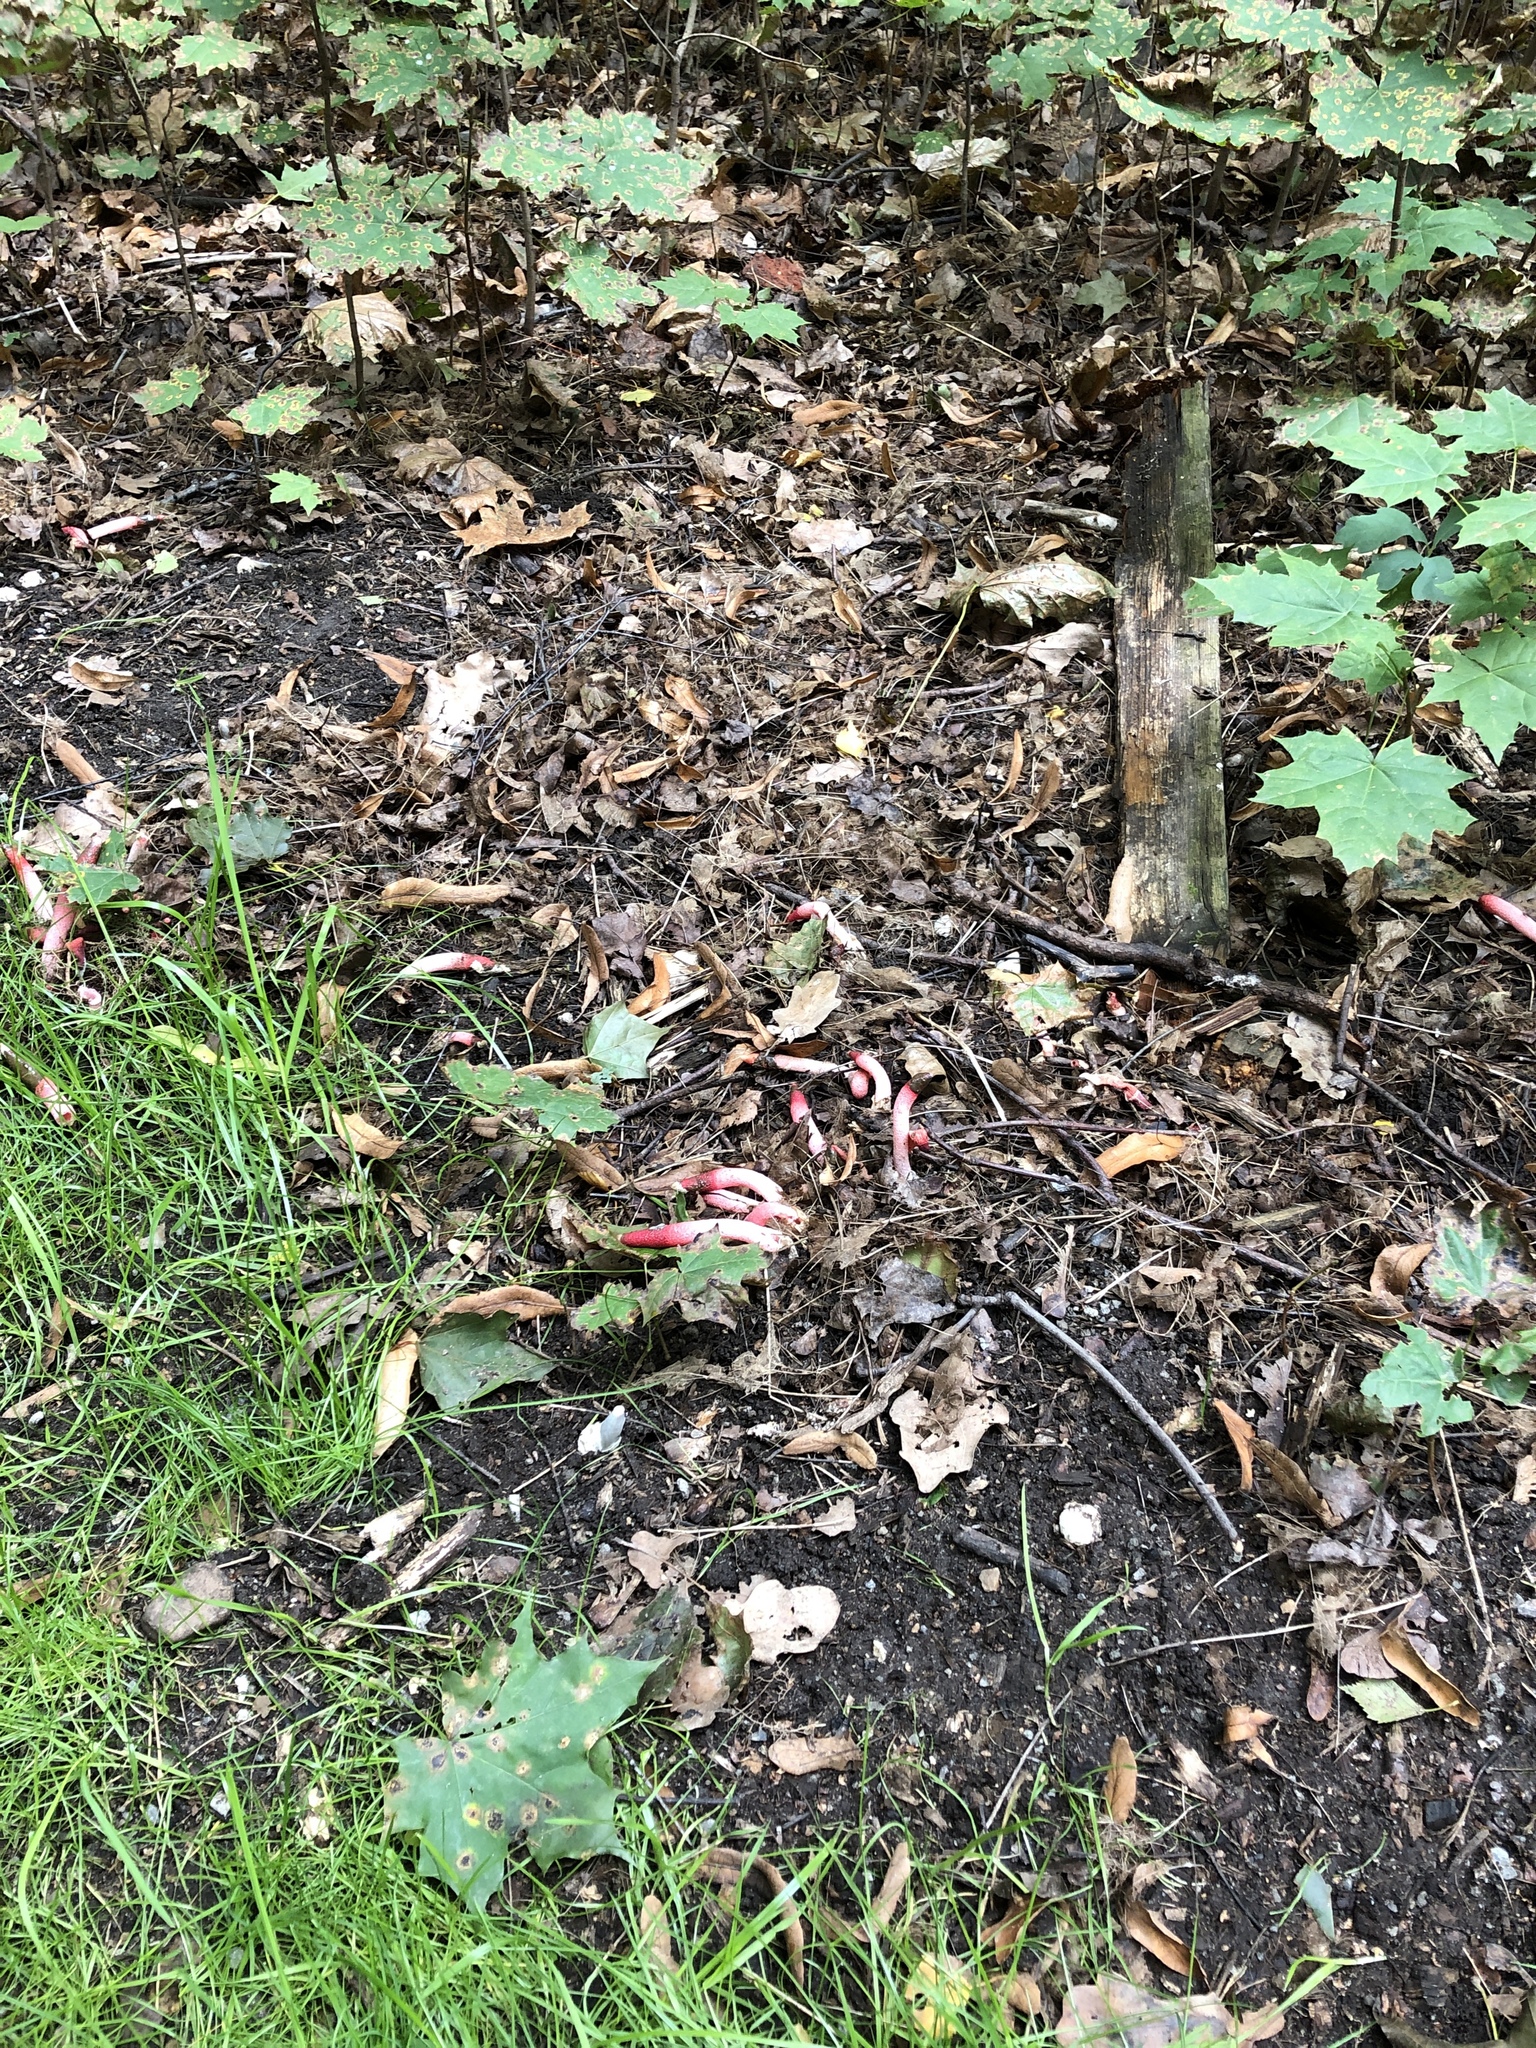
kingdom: Fungi
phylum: Basidiomycota
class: Agaricomycetes
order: Phallales
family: Phallaceae
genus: Mutinus
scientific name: Mutinus ravenelii
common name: Red stinkhorn
